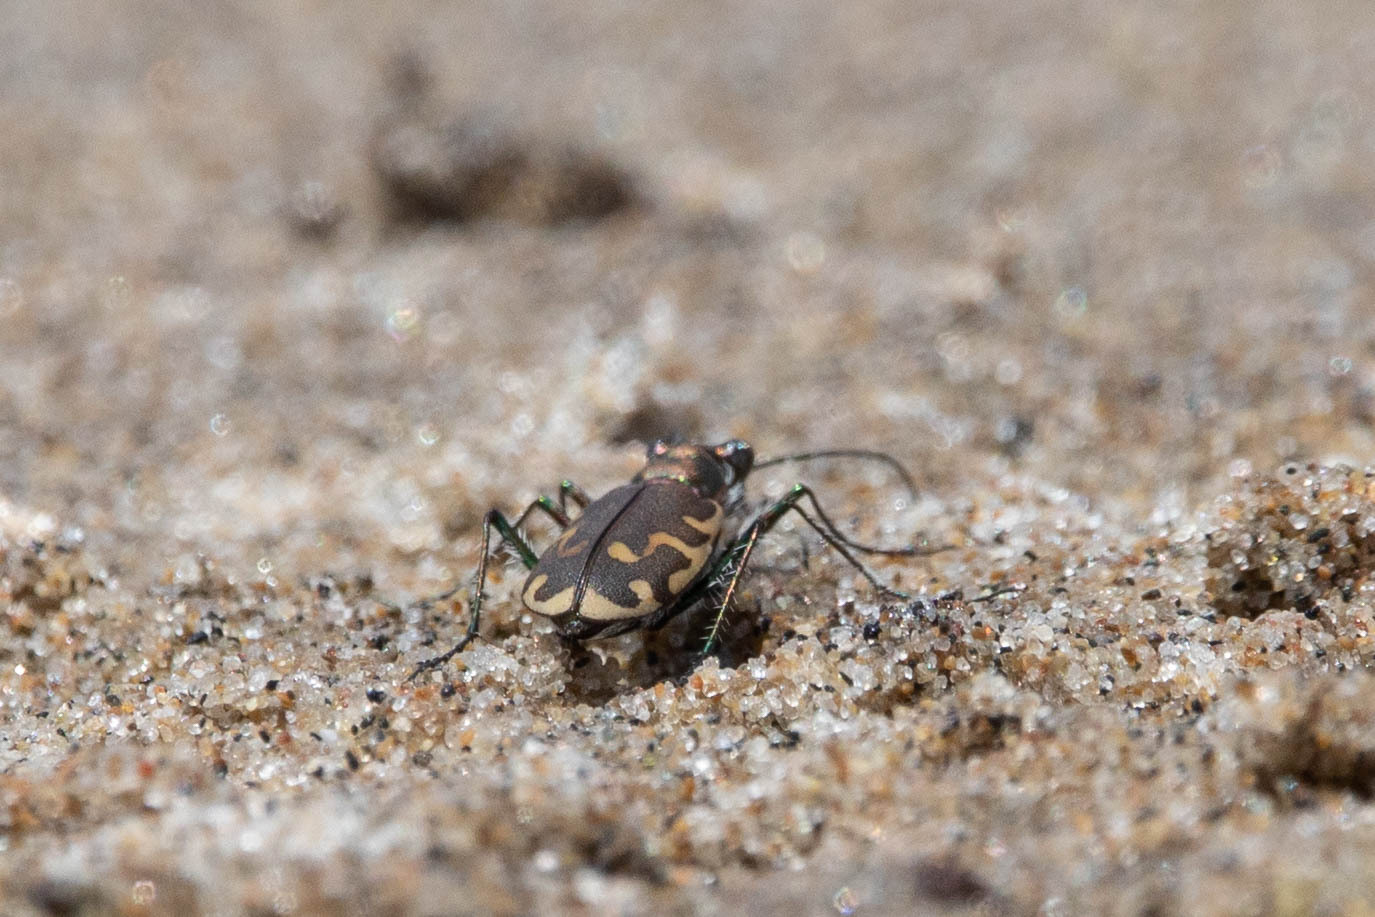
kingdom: Animalia
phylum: Arthropoda
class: Insecta
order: Coleoptera
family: Carabidae
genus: Cicindela
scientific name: Cicindela repanda
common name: Bronzed tiger beetle
